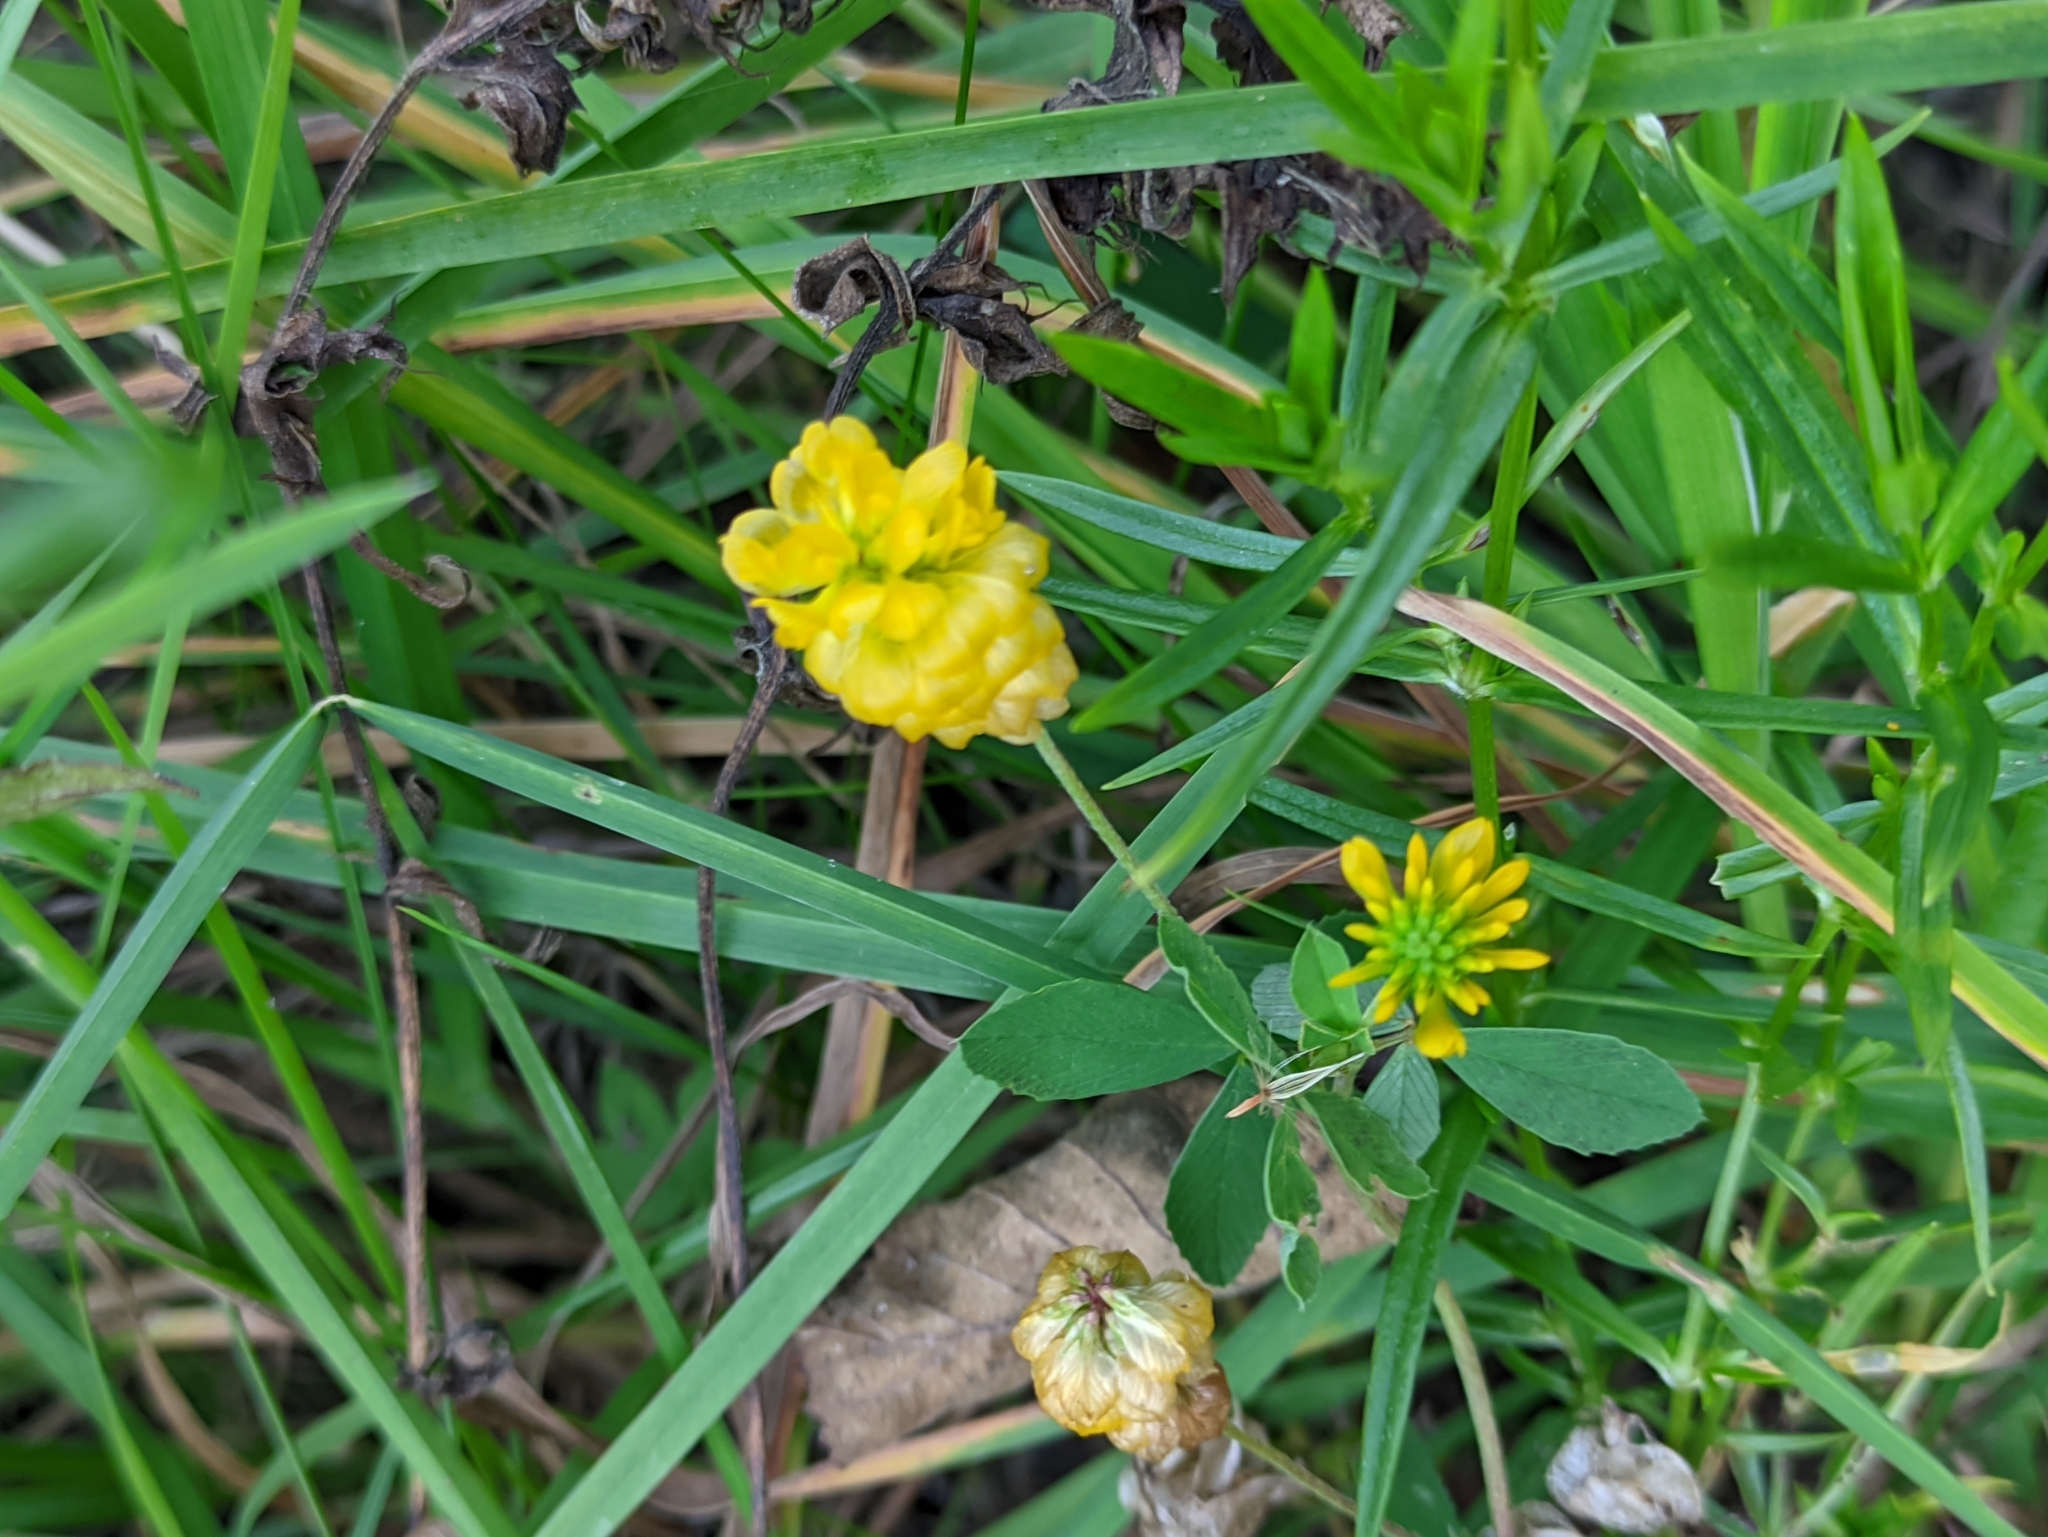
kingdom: Plantae
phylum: Tracheophyta
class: Magnoliopsida
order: Fabales
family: Fabaceae
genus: Trifolium
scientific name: Trifolium aureum
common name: Golden clover
